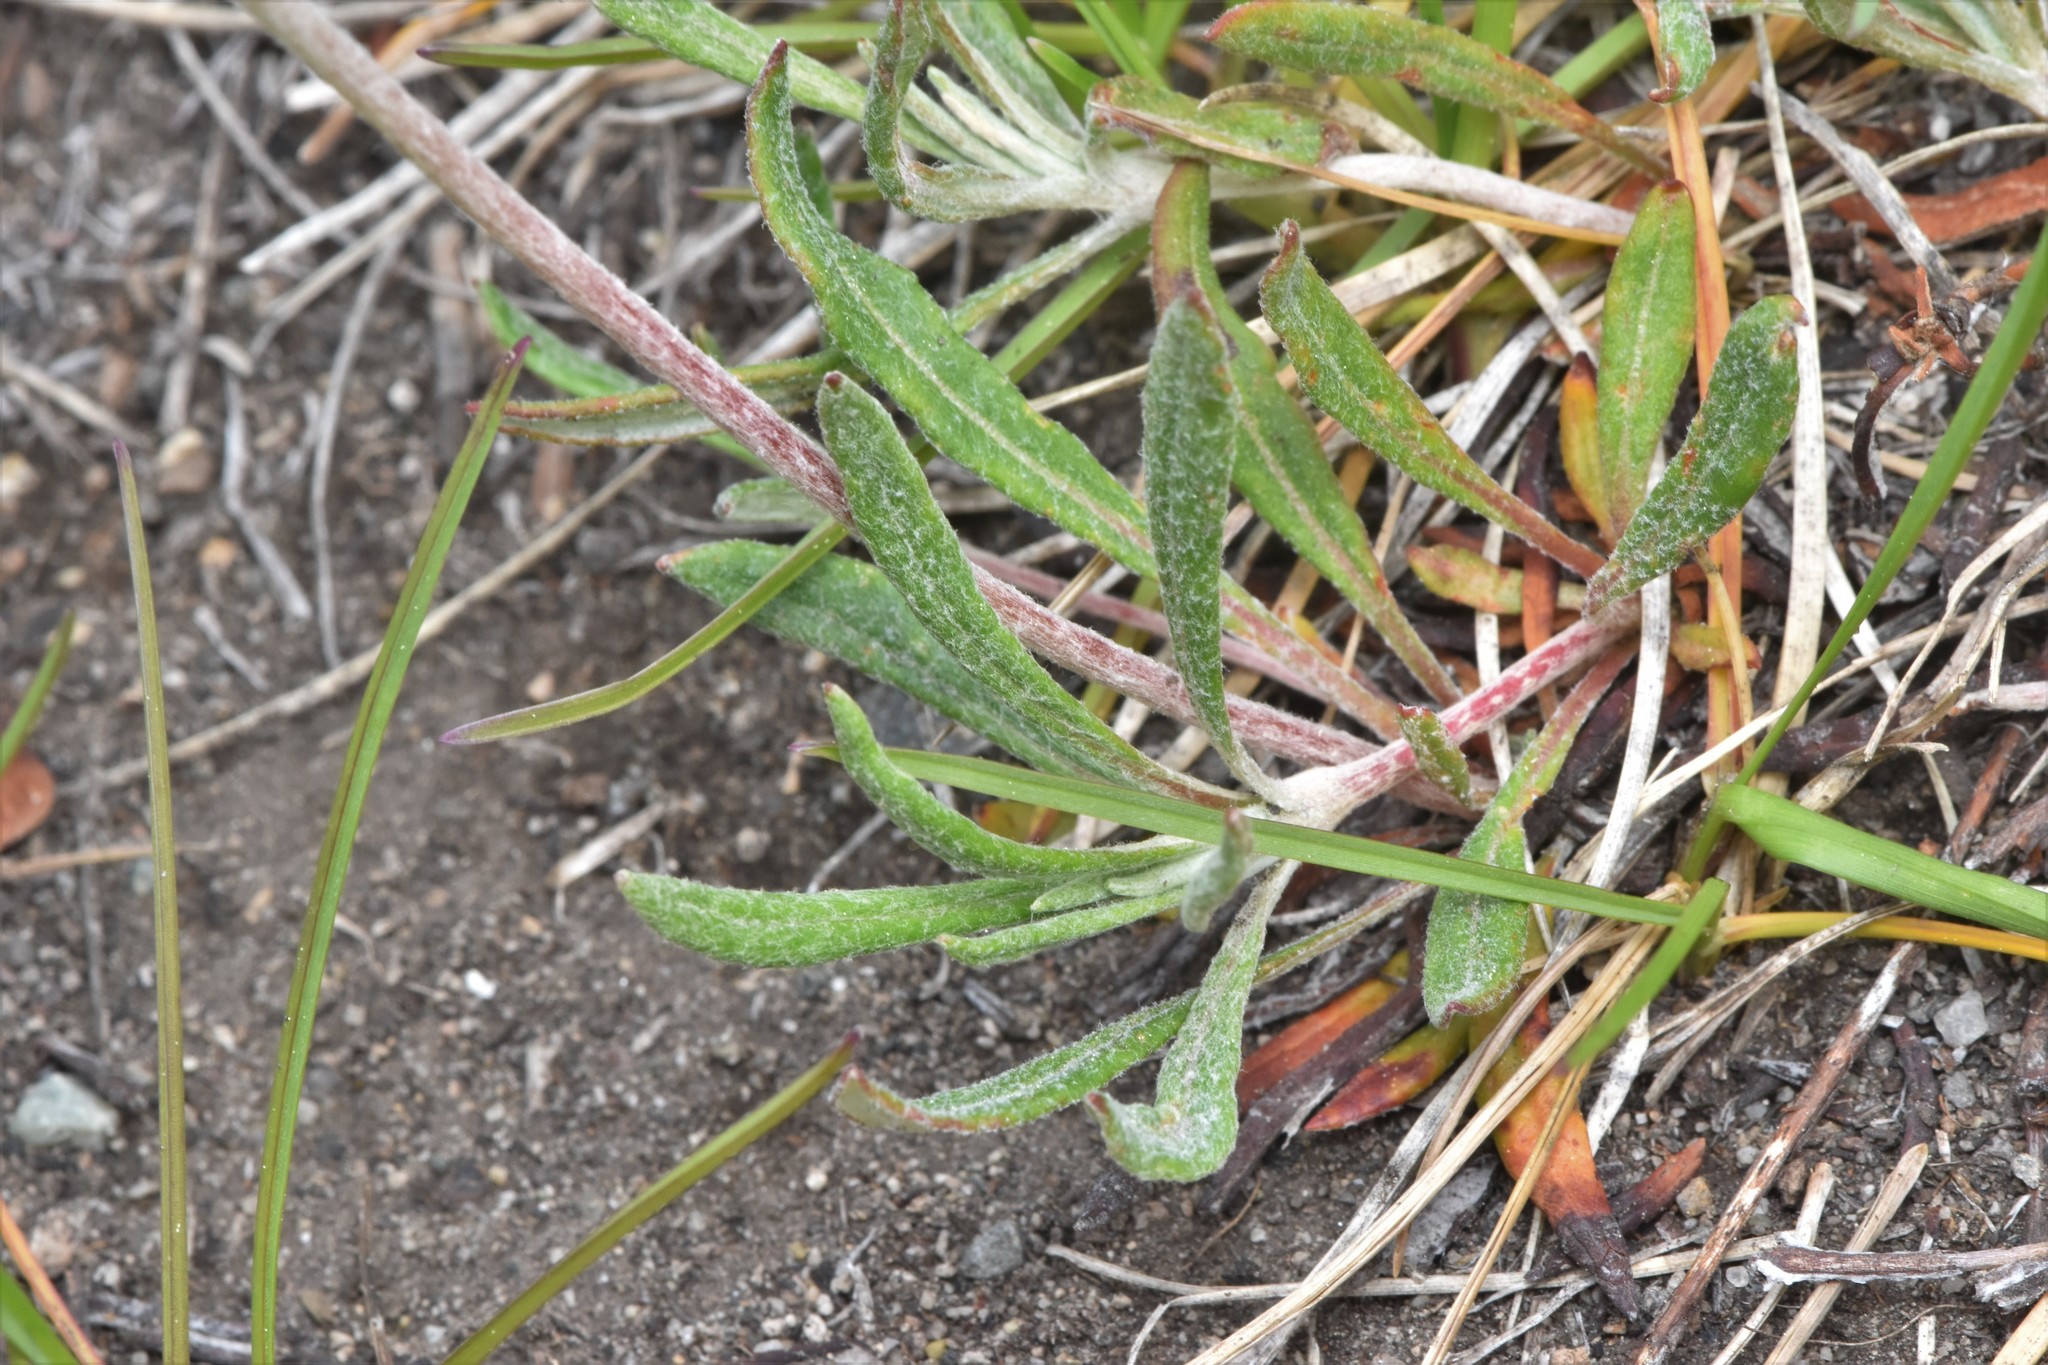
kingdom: Plantae
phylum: Tracheophyta
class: Magnoliopsida
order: Caryophyllales
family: Polygonaceae
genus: Eriogonum
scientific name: Eriogonum heracleoides
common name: Wyeth's buckwheat
